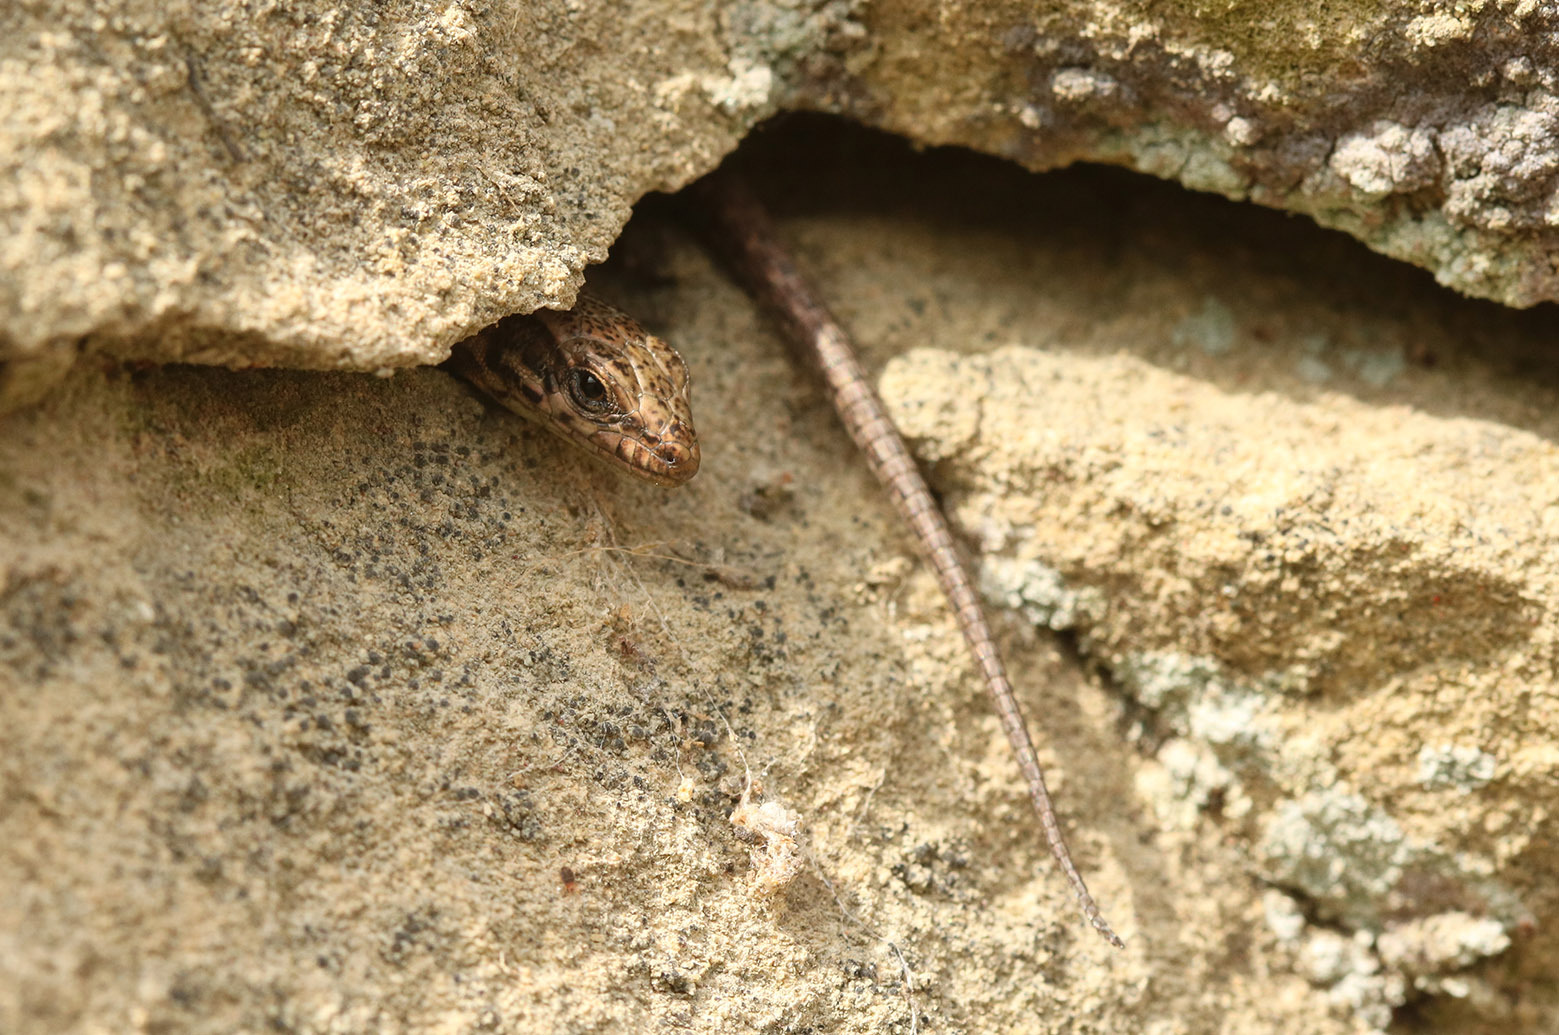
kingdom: Animalia
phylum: Chordata
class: Squamata
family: Lacertidae
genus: Podarcis
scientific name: Podarcis muralis
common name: Common wall lizard
